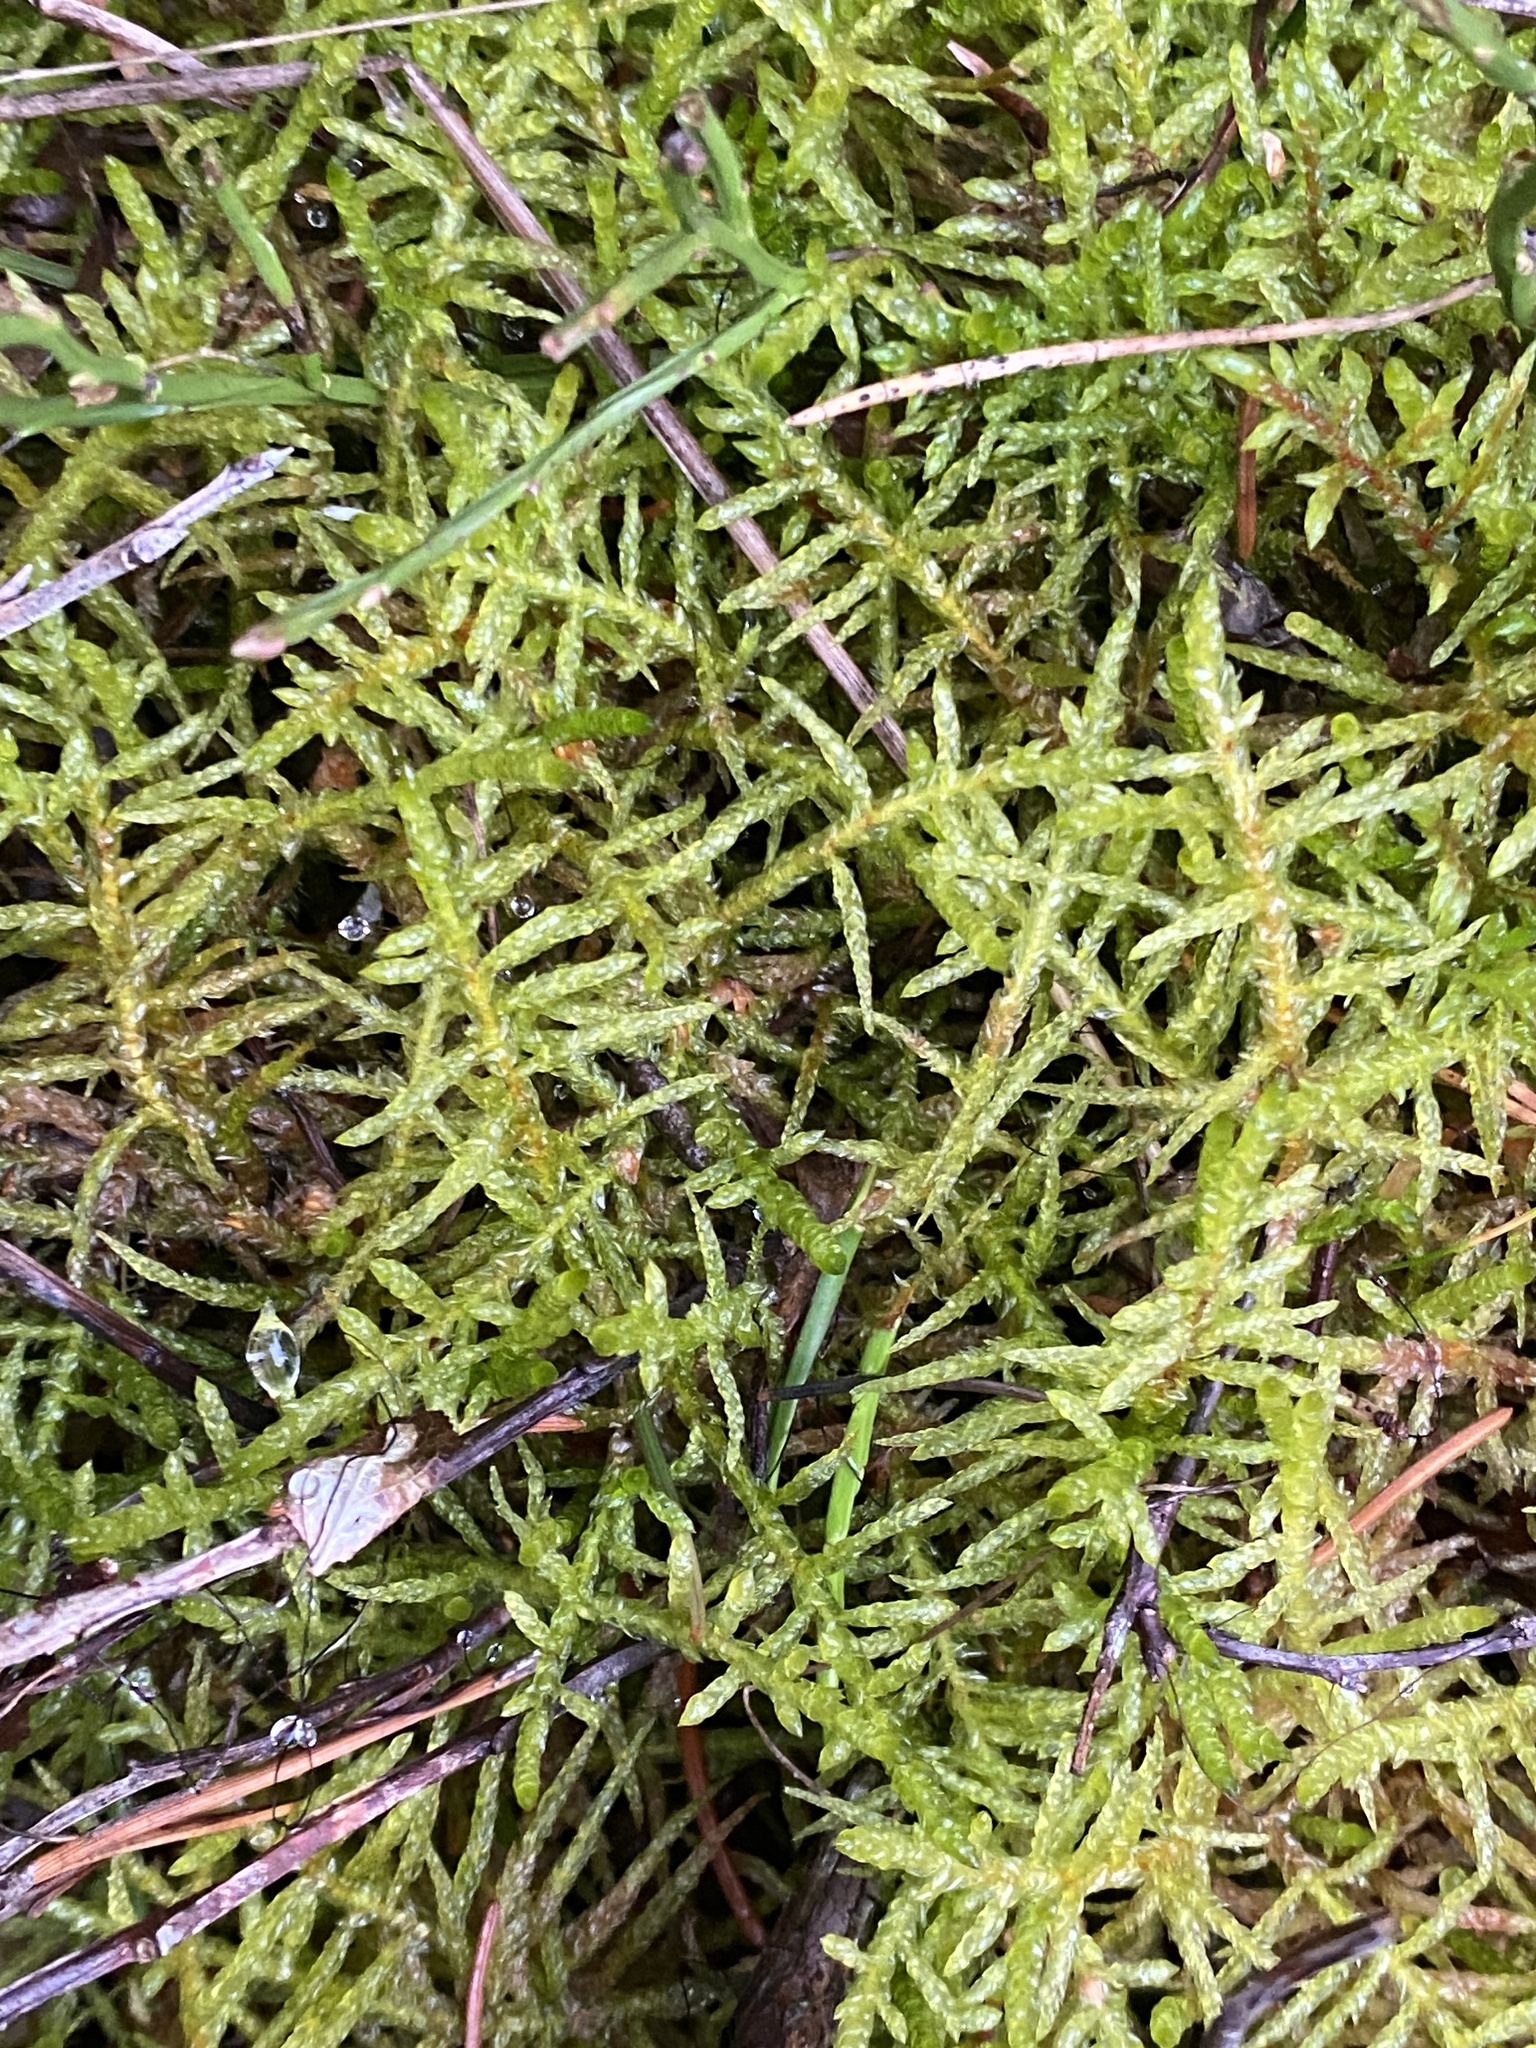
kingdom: Plantae
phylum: Bryophyta
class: Bryopsida
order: Hypnales
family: Brachytheciaceae
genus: Pseudoscleropodium
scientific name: Pseudoscleropodium purum
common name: Neat feather-moss
